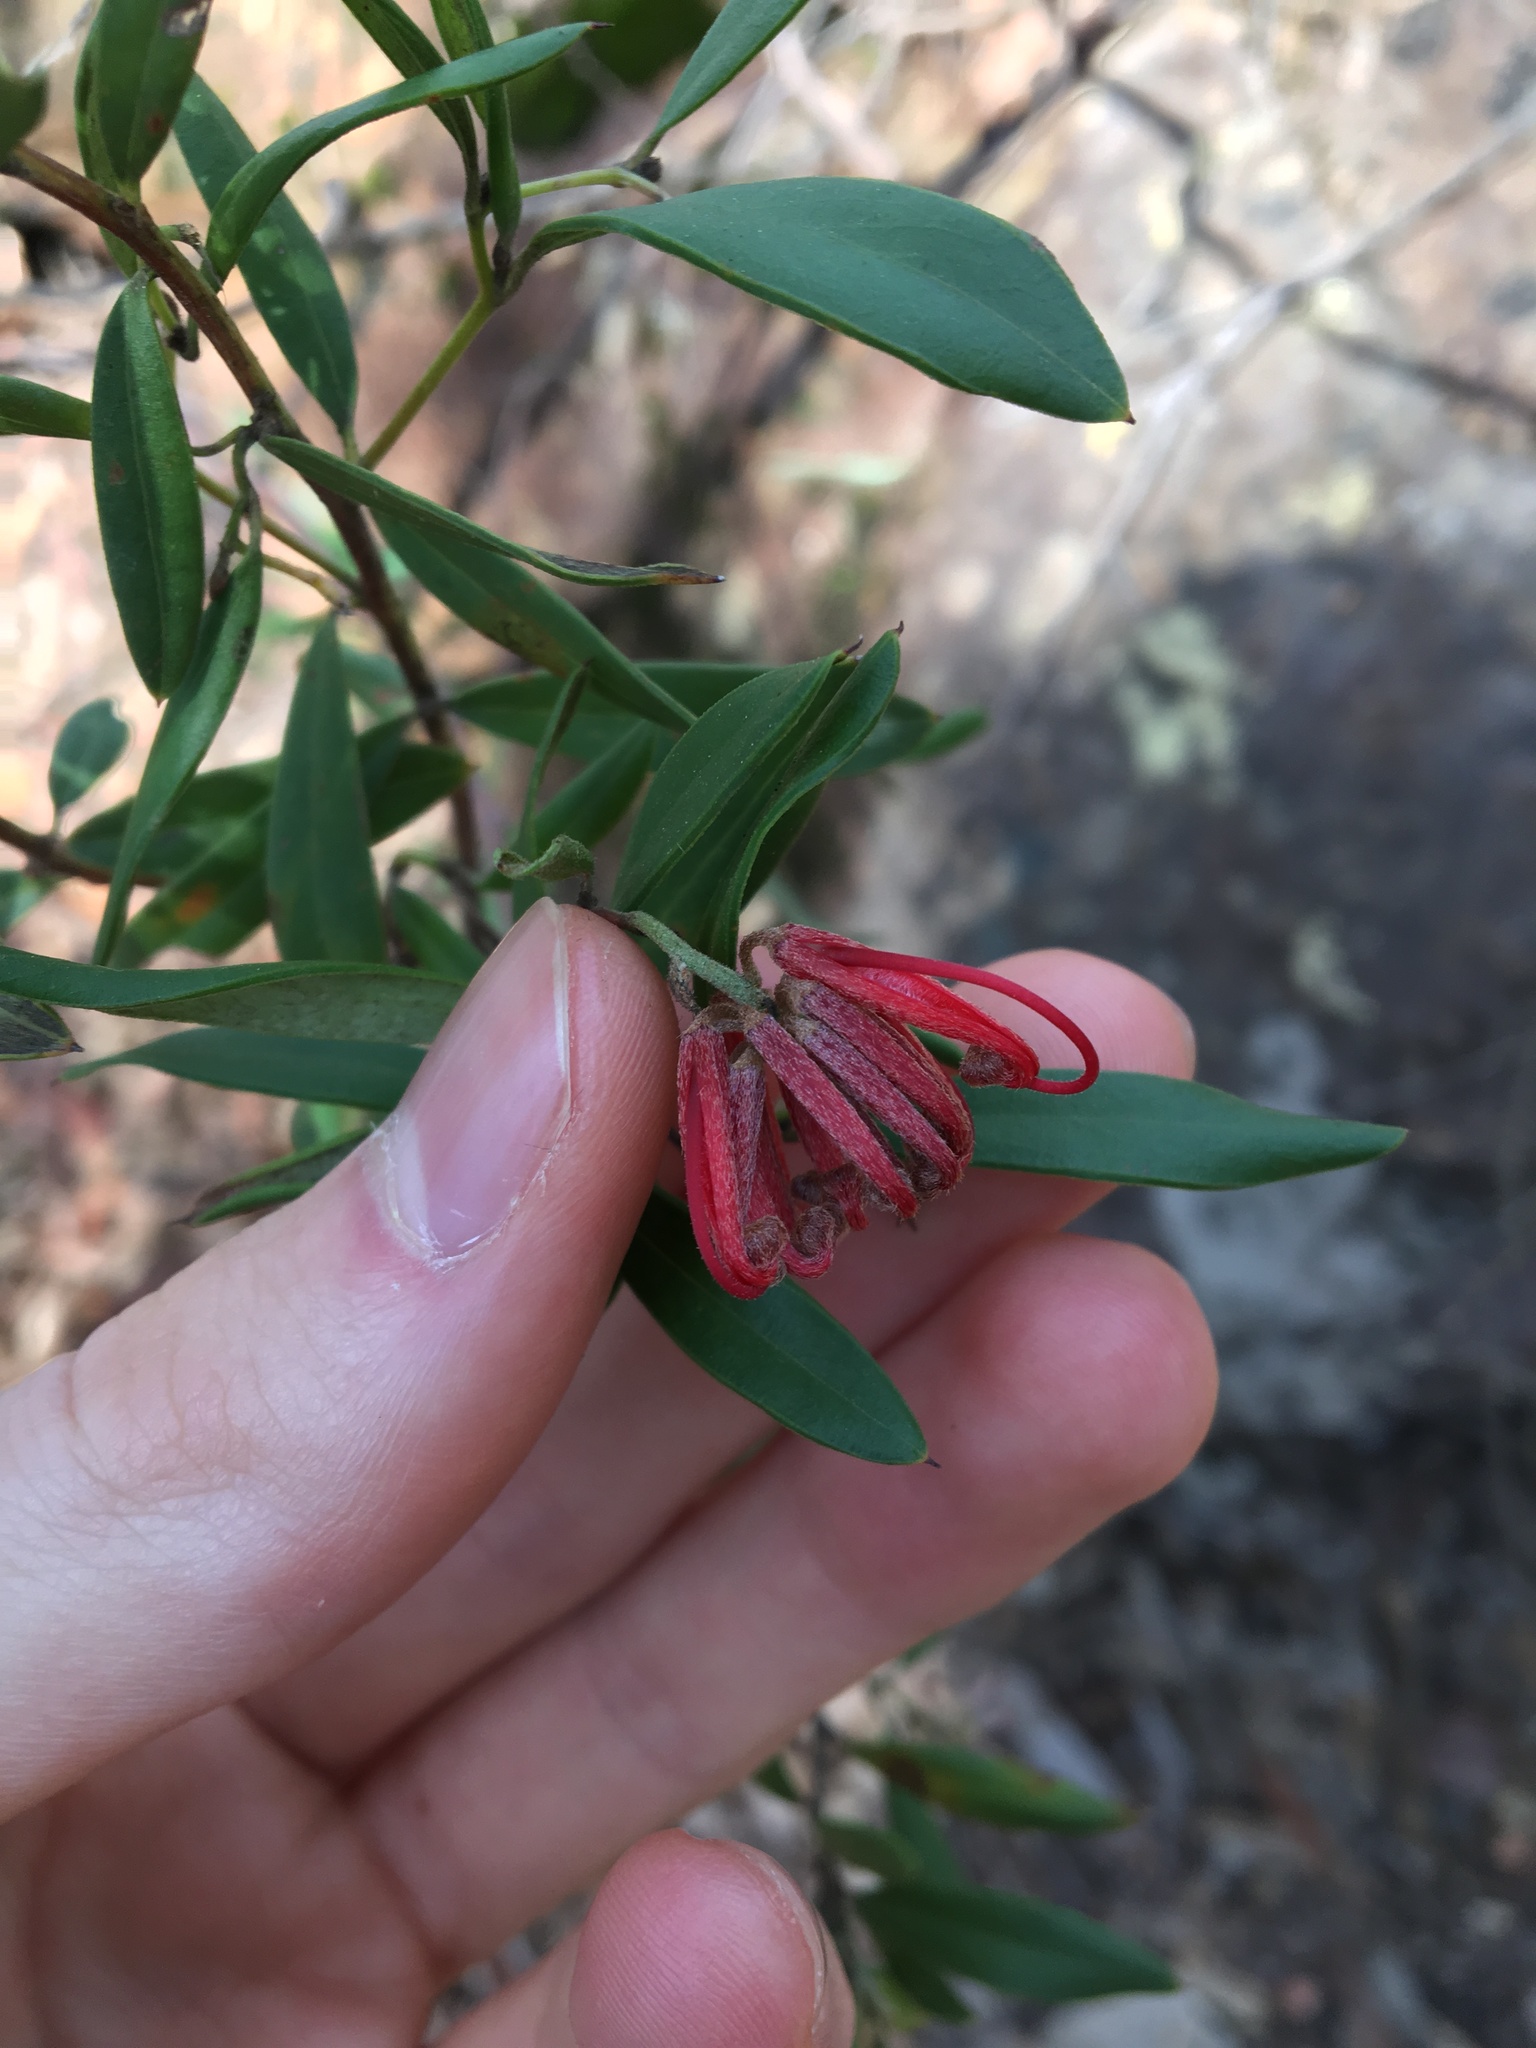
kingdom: Plantae
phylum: Tracheophyta
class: Magnoliopsida
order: Proteales
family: Proteaceae
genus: Grevillea
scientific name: Grevillea speciosa
